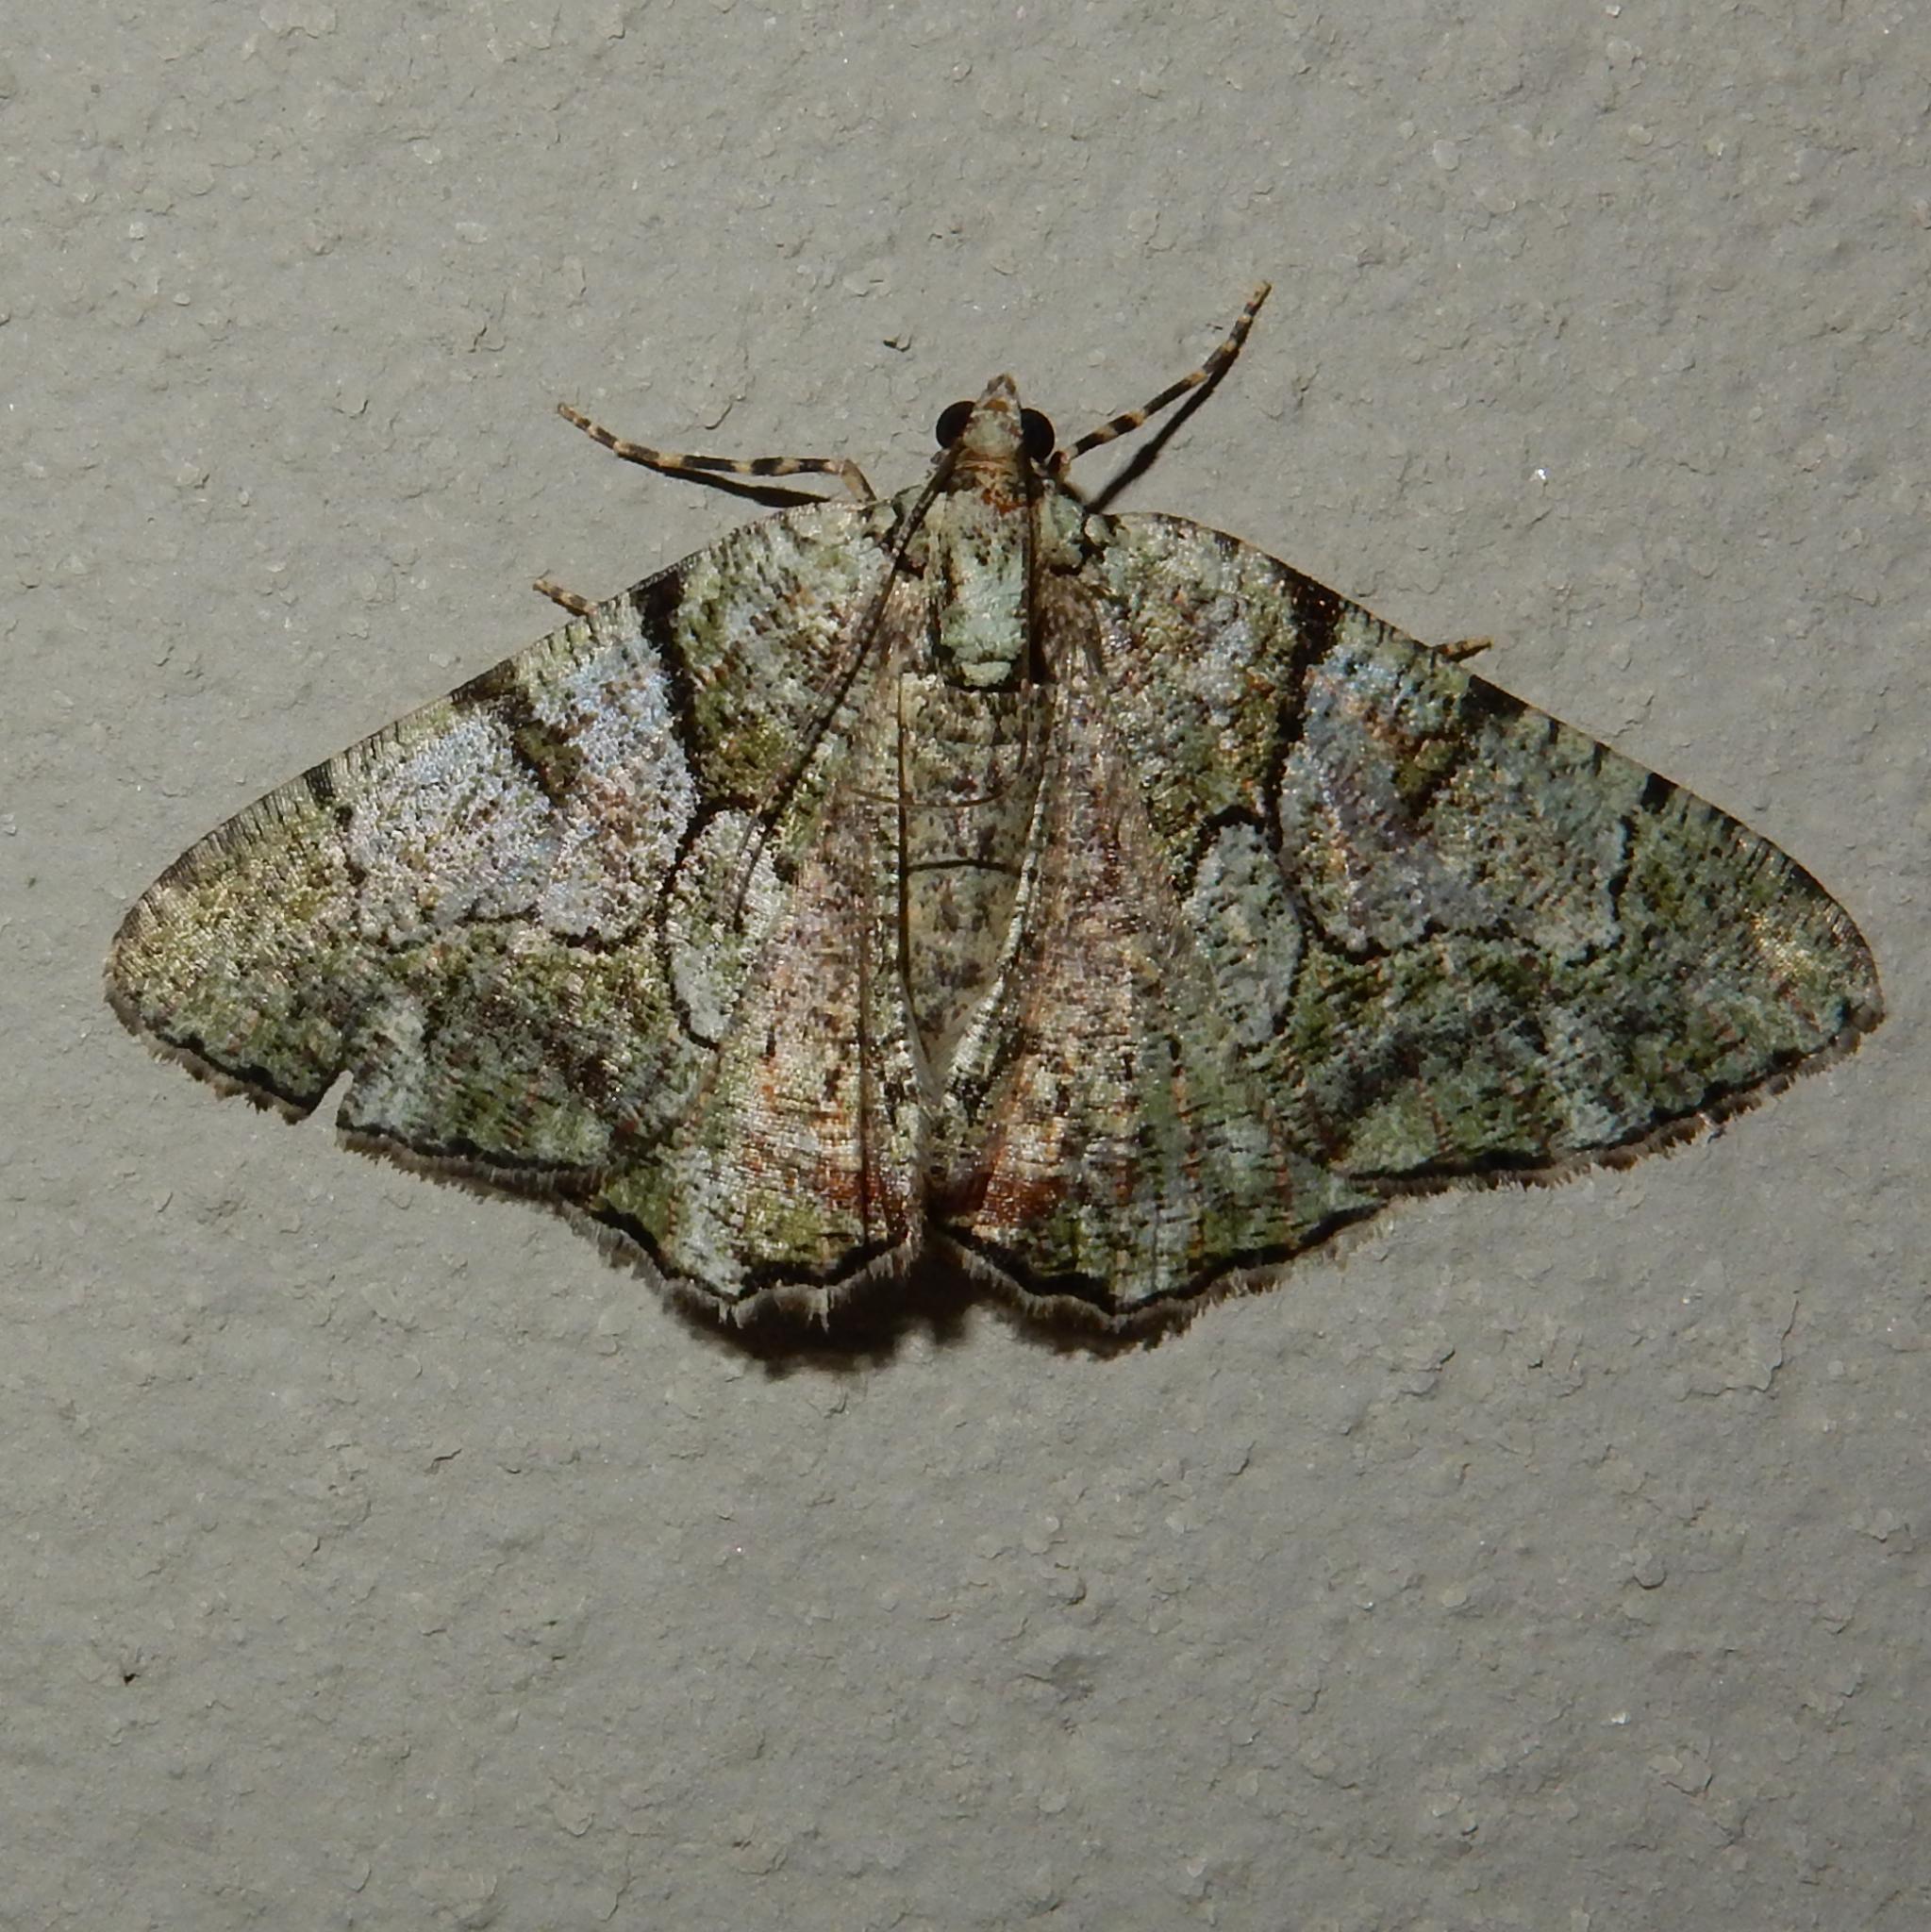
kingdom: Animalia
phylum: Arthropoda
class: Insecta
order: Lepidoptera
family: Geometridae
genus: Xylopteryx
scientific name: Xylopteryx prasinaria
